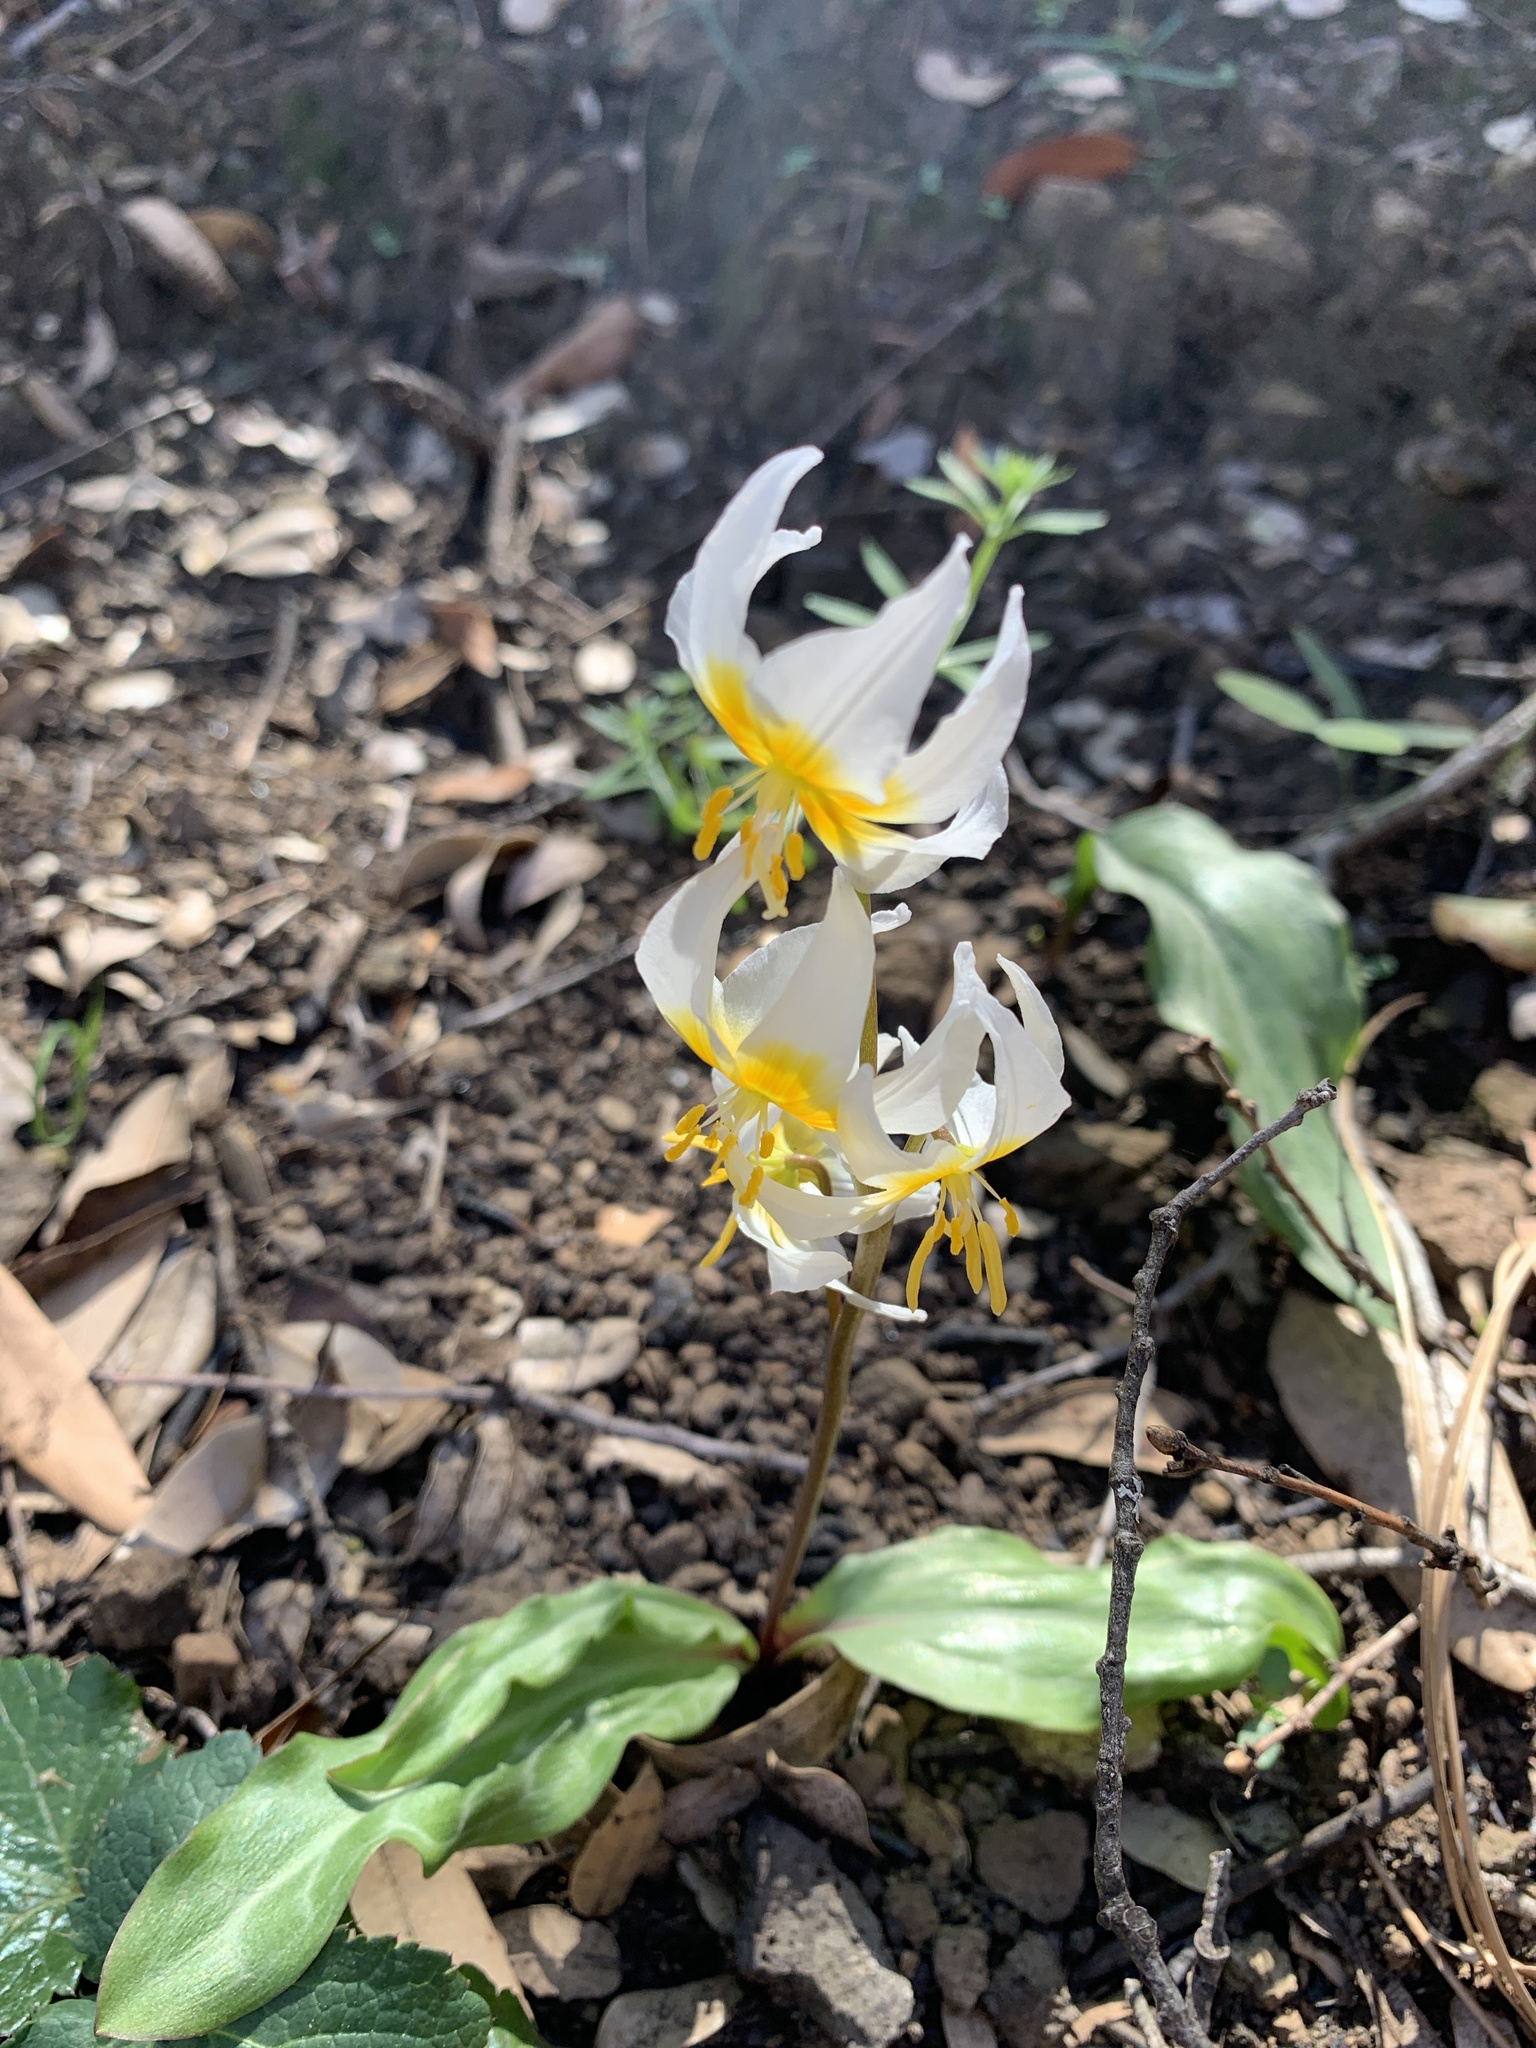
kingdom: Plantae
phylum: Tracheophyta
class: Liliopsida
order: Liliales
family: Liliaceae
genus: Erythronium
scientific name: Erythronium helenae
